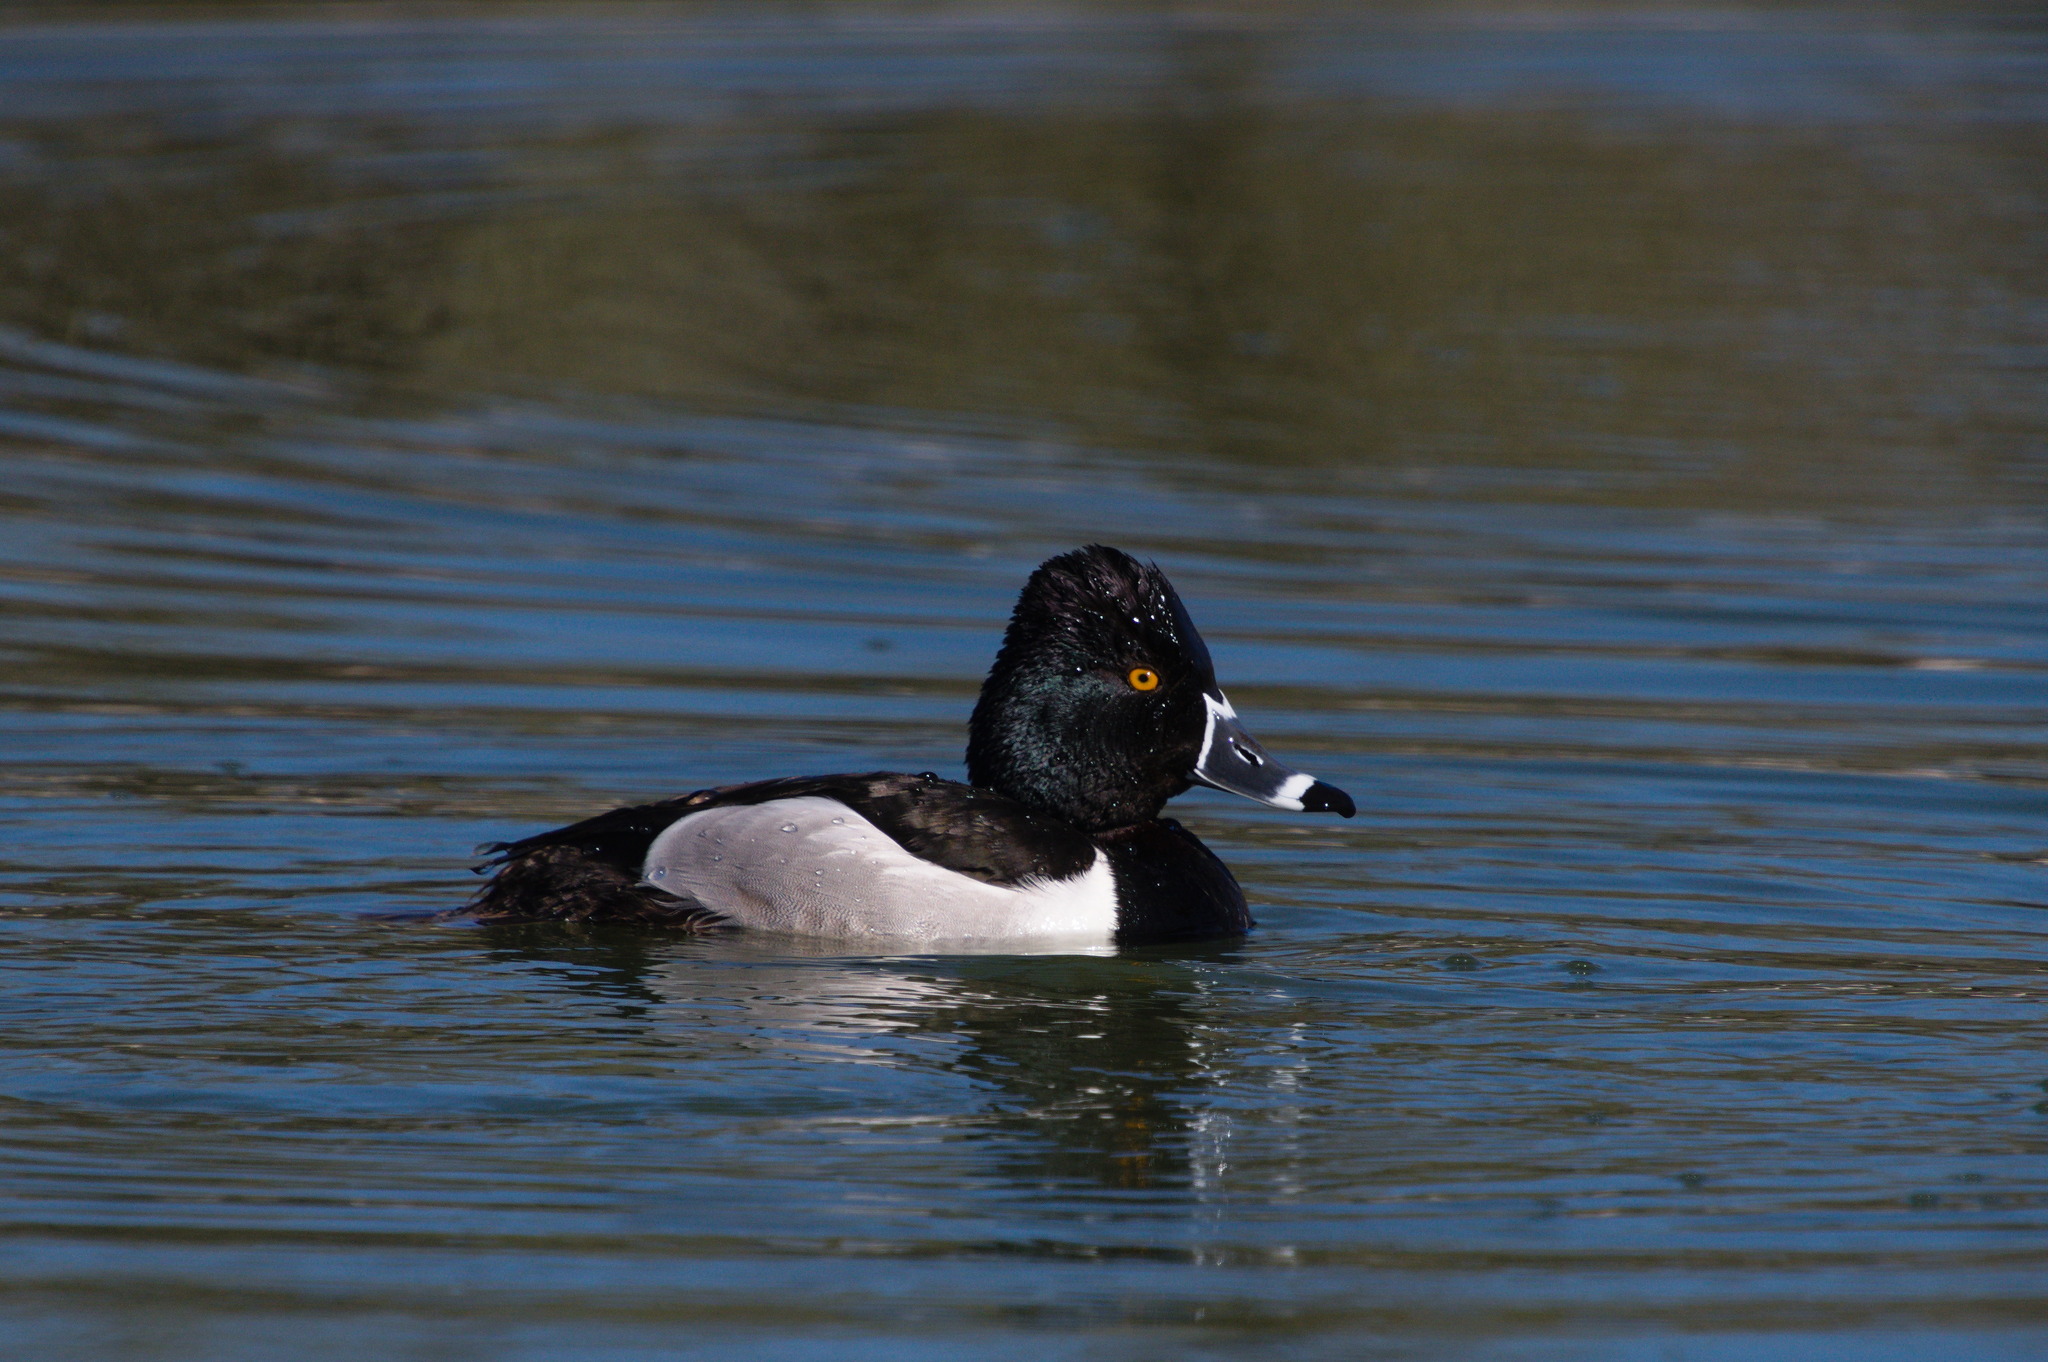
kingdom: Animalia
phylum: Chordata
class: Aves
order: Anseriformes
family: Anatidae
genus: Aythya
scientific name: Aythya collaris
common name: Ring-necked duck
